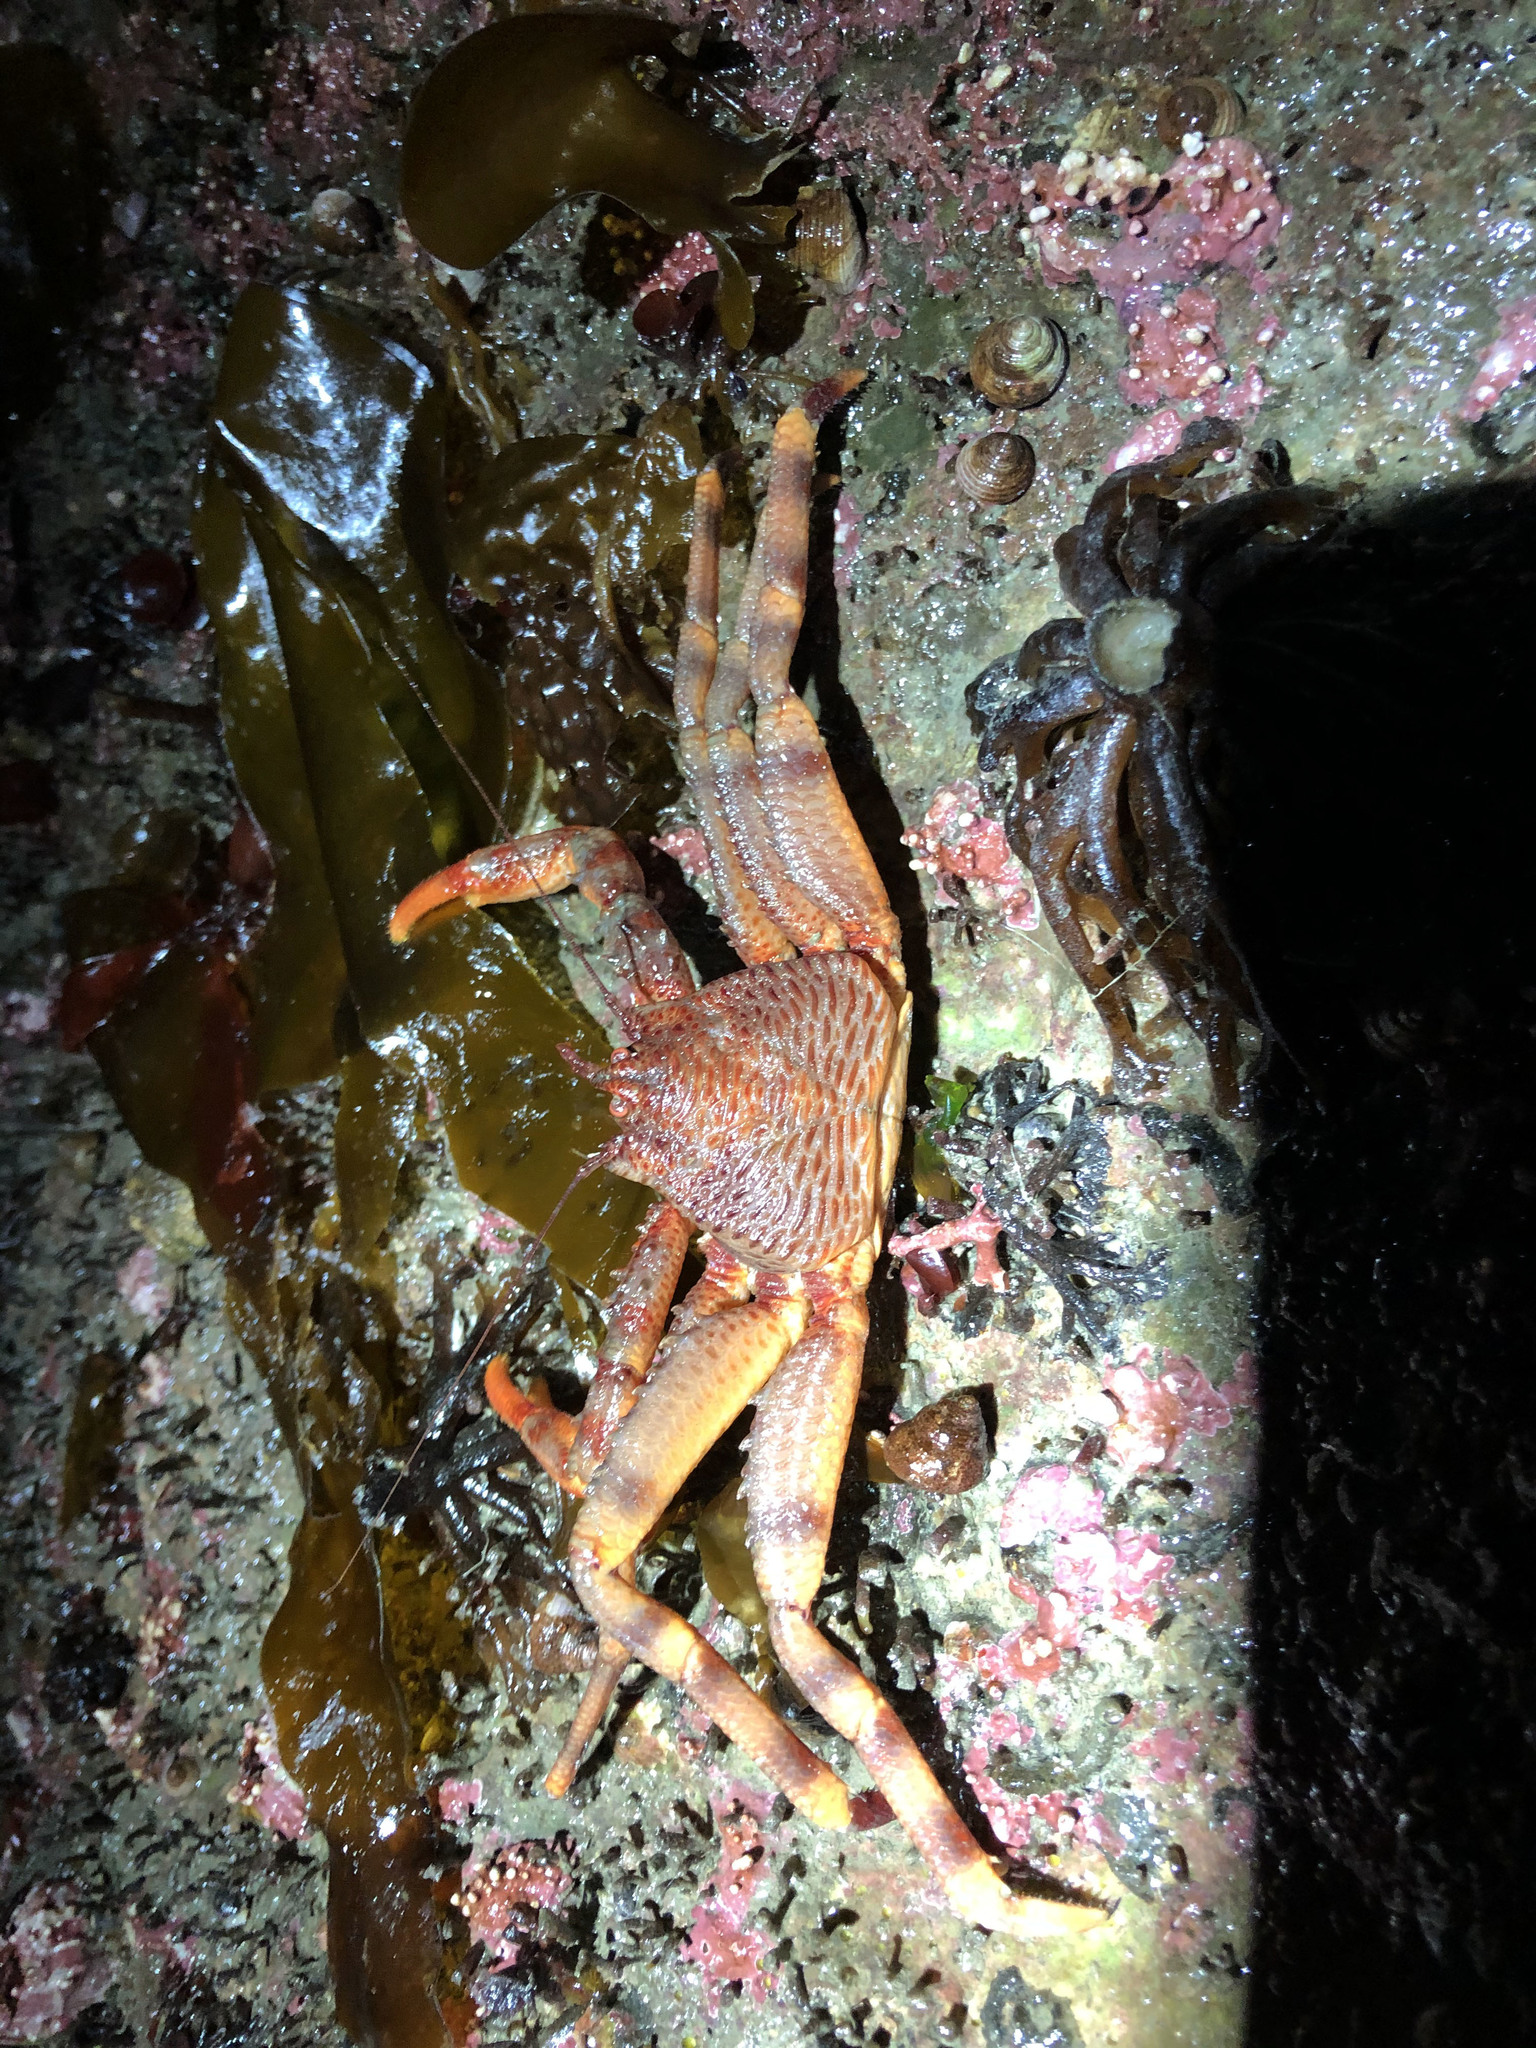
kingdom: Animalia
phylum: Arthropoda
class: Malacostraca
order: Decapoda
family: Hapalogastridae
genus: Placetron
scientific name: Placetron wosnessenskii
